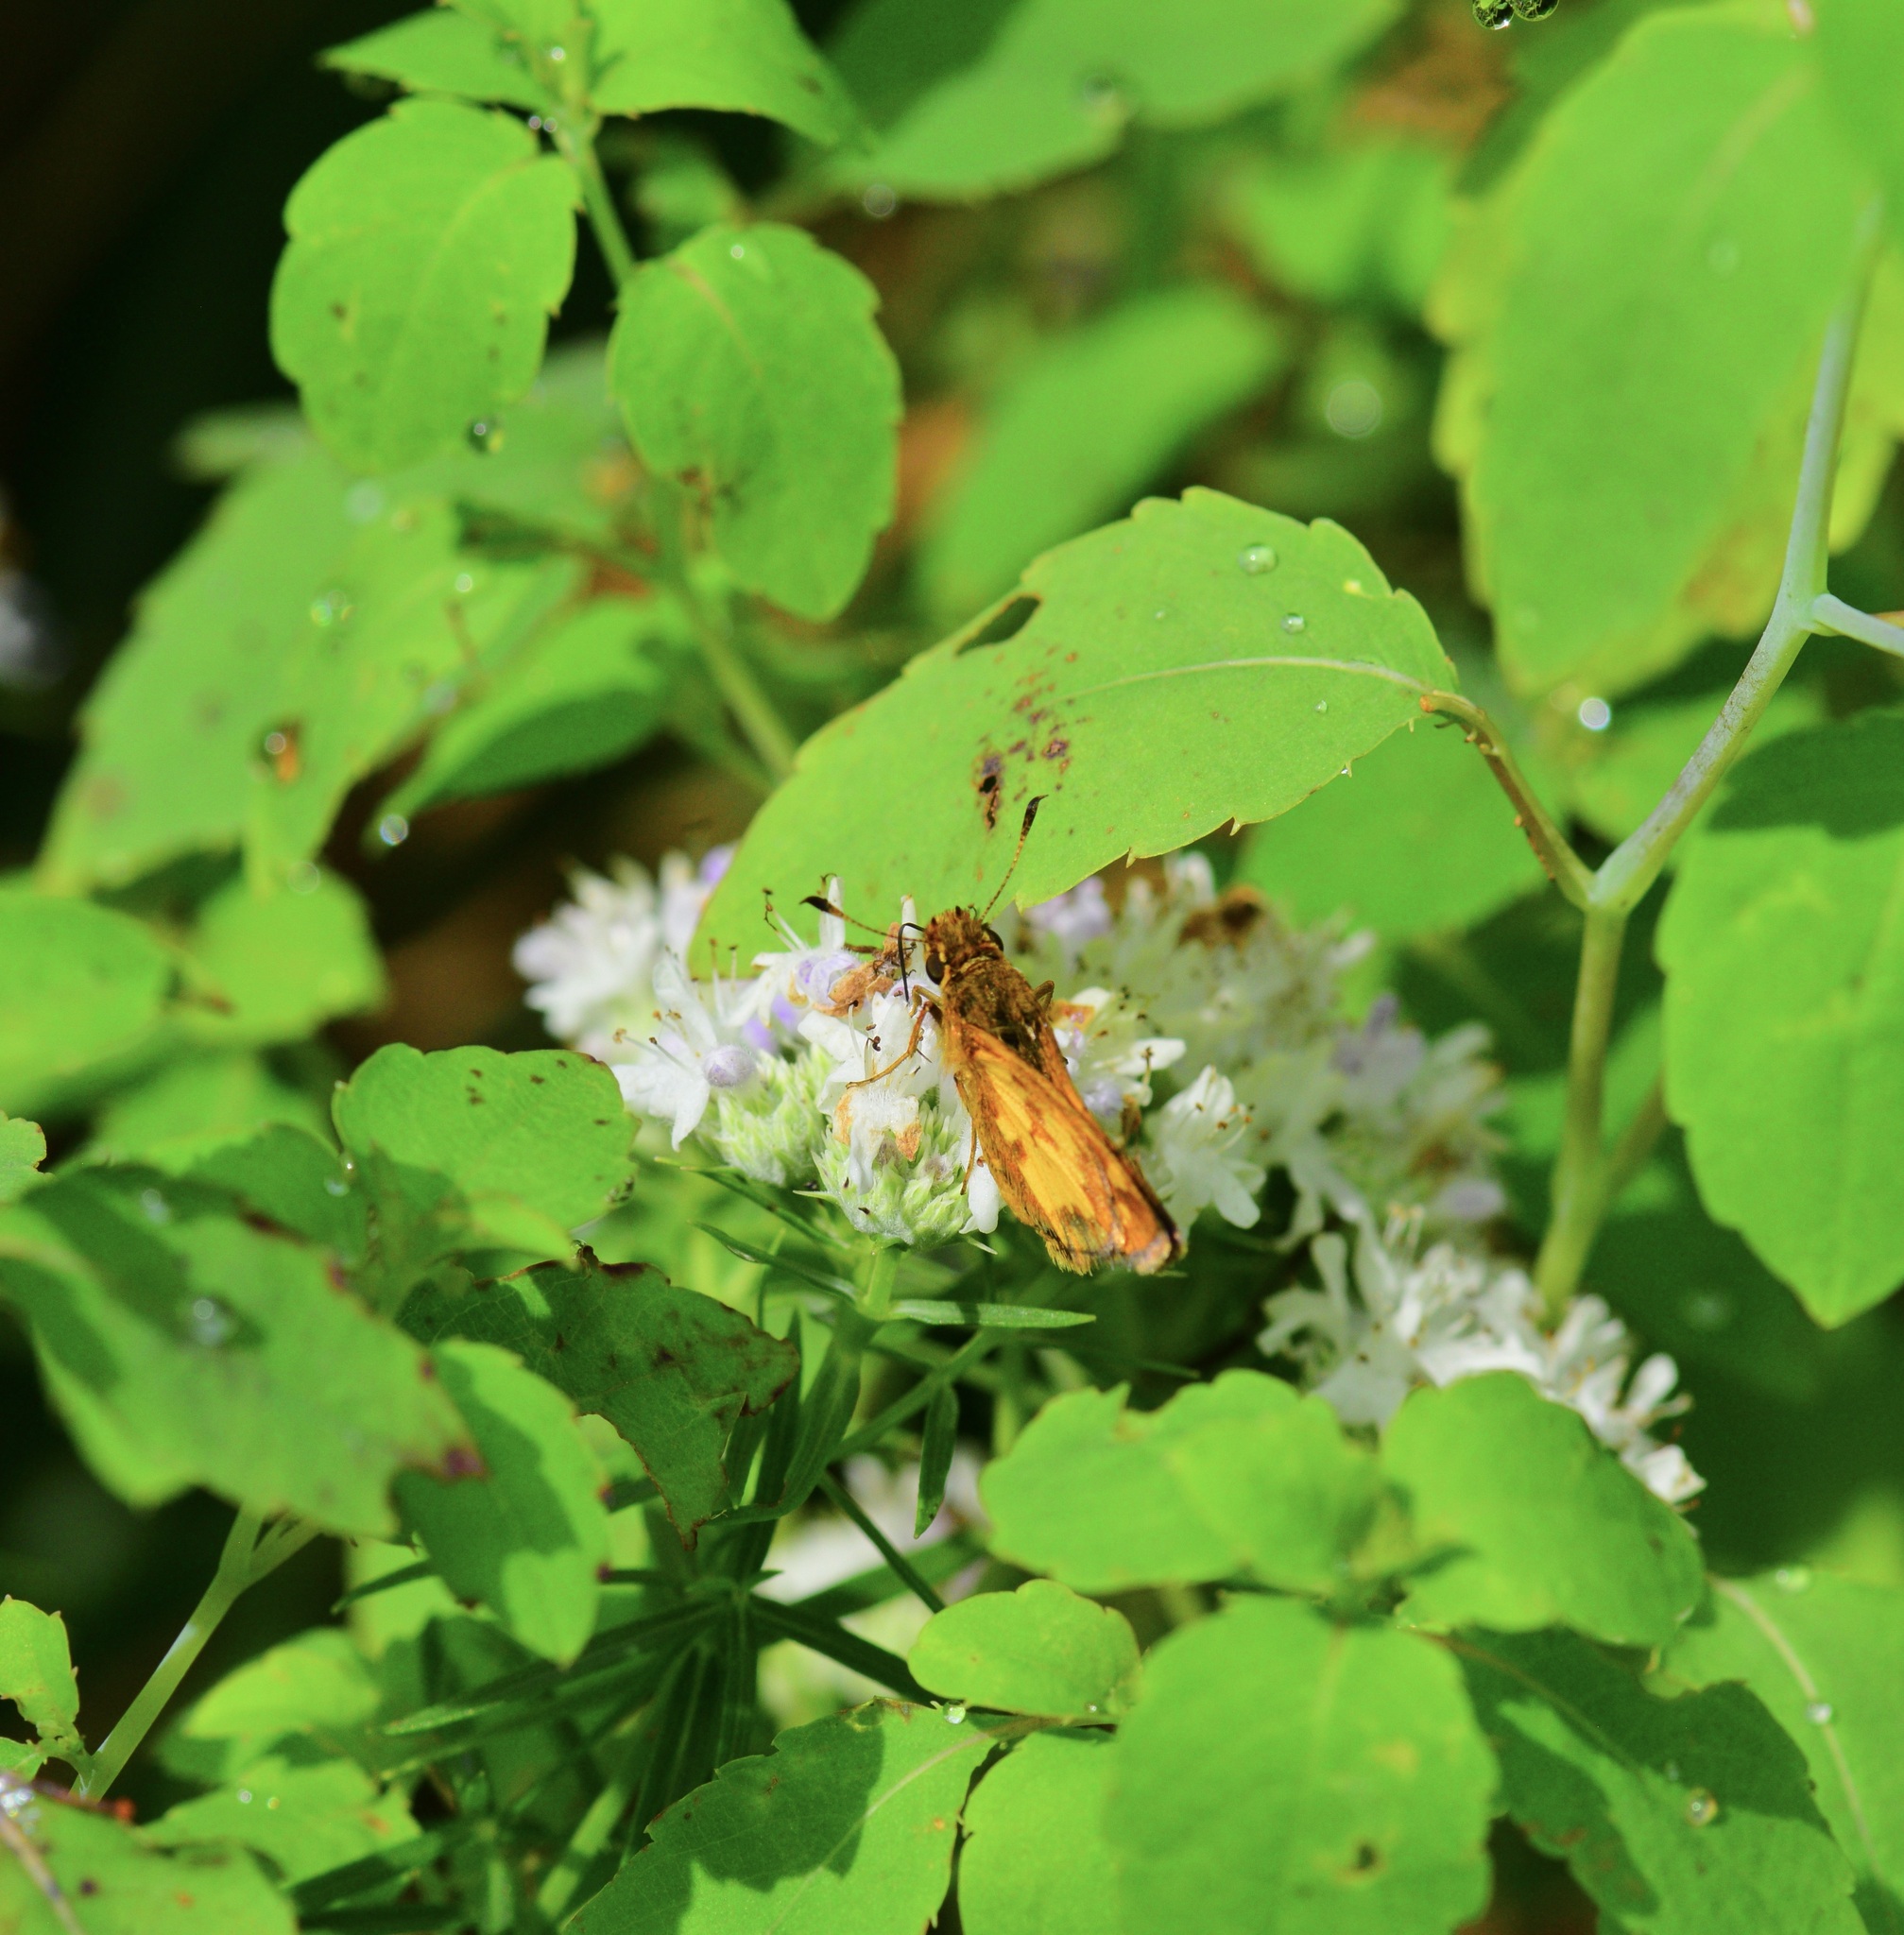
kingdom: Animalia
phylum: Arthropoda
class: Insecta
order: Lepidoptera
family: Hesperiidae
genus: Polites
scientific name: Polites coras
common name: Peck's skipper
